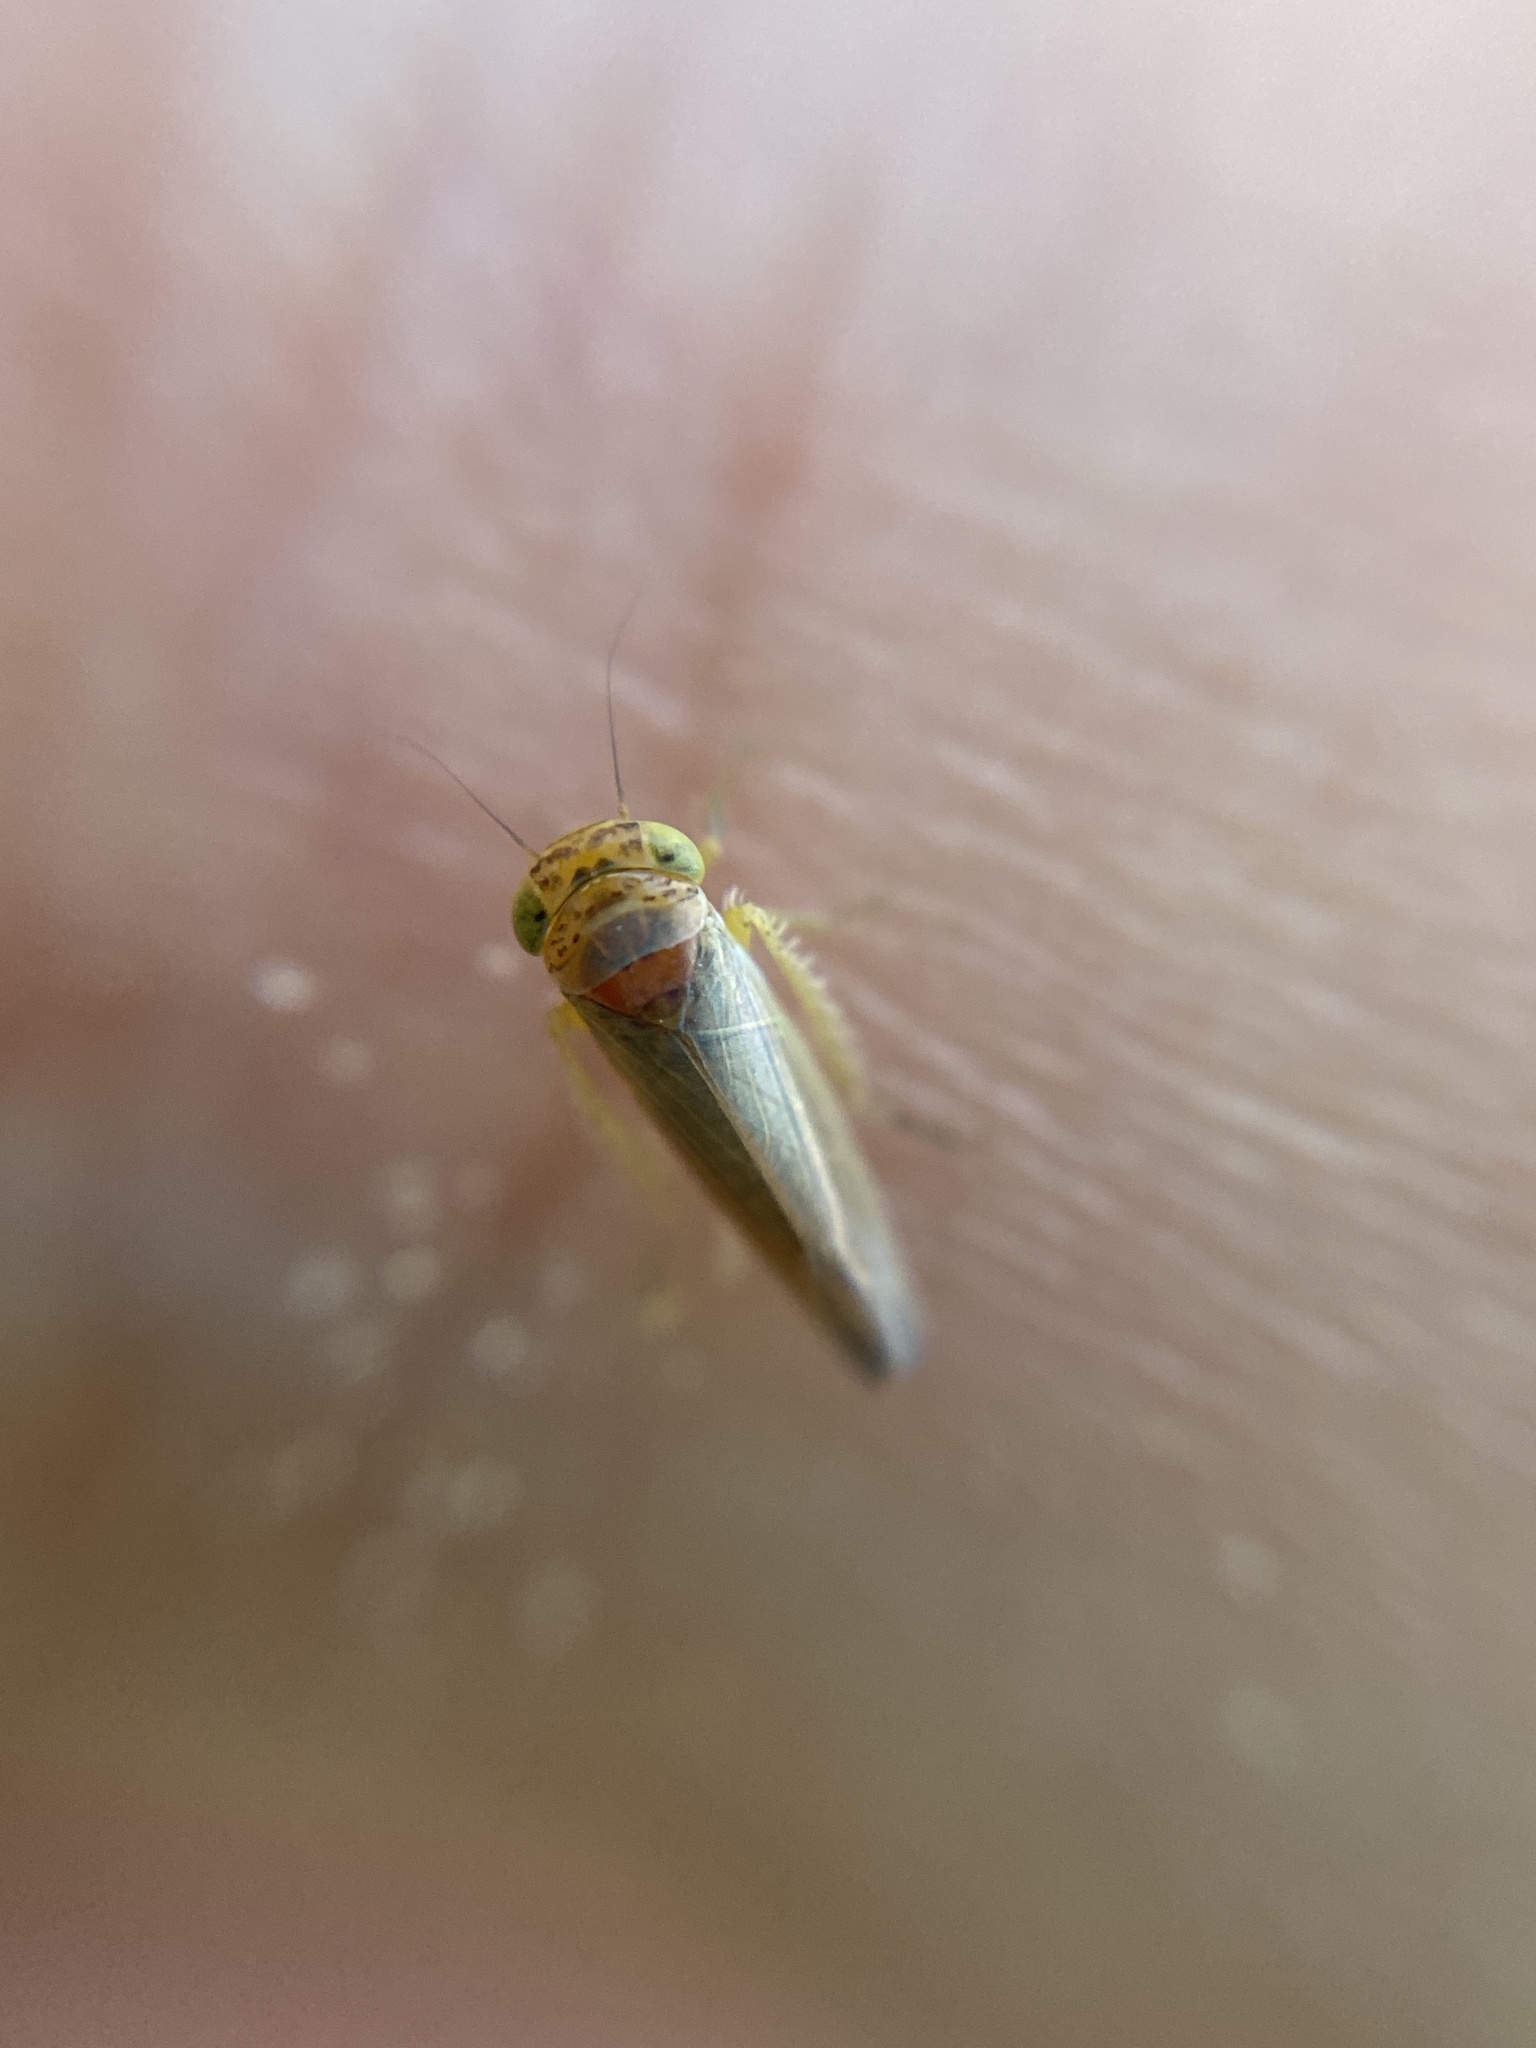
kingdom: Animalia
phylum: Arthropoda
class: Insecta
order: Hemiptera
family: Cicadellidae
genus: Grypotes
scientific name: Grypotes puncticollis
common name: Leafhopper
